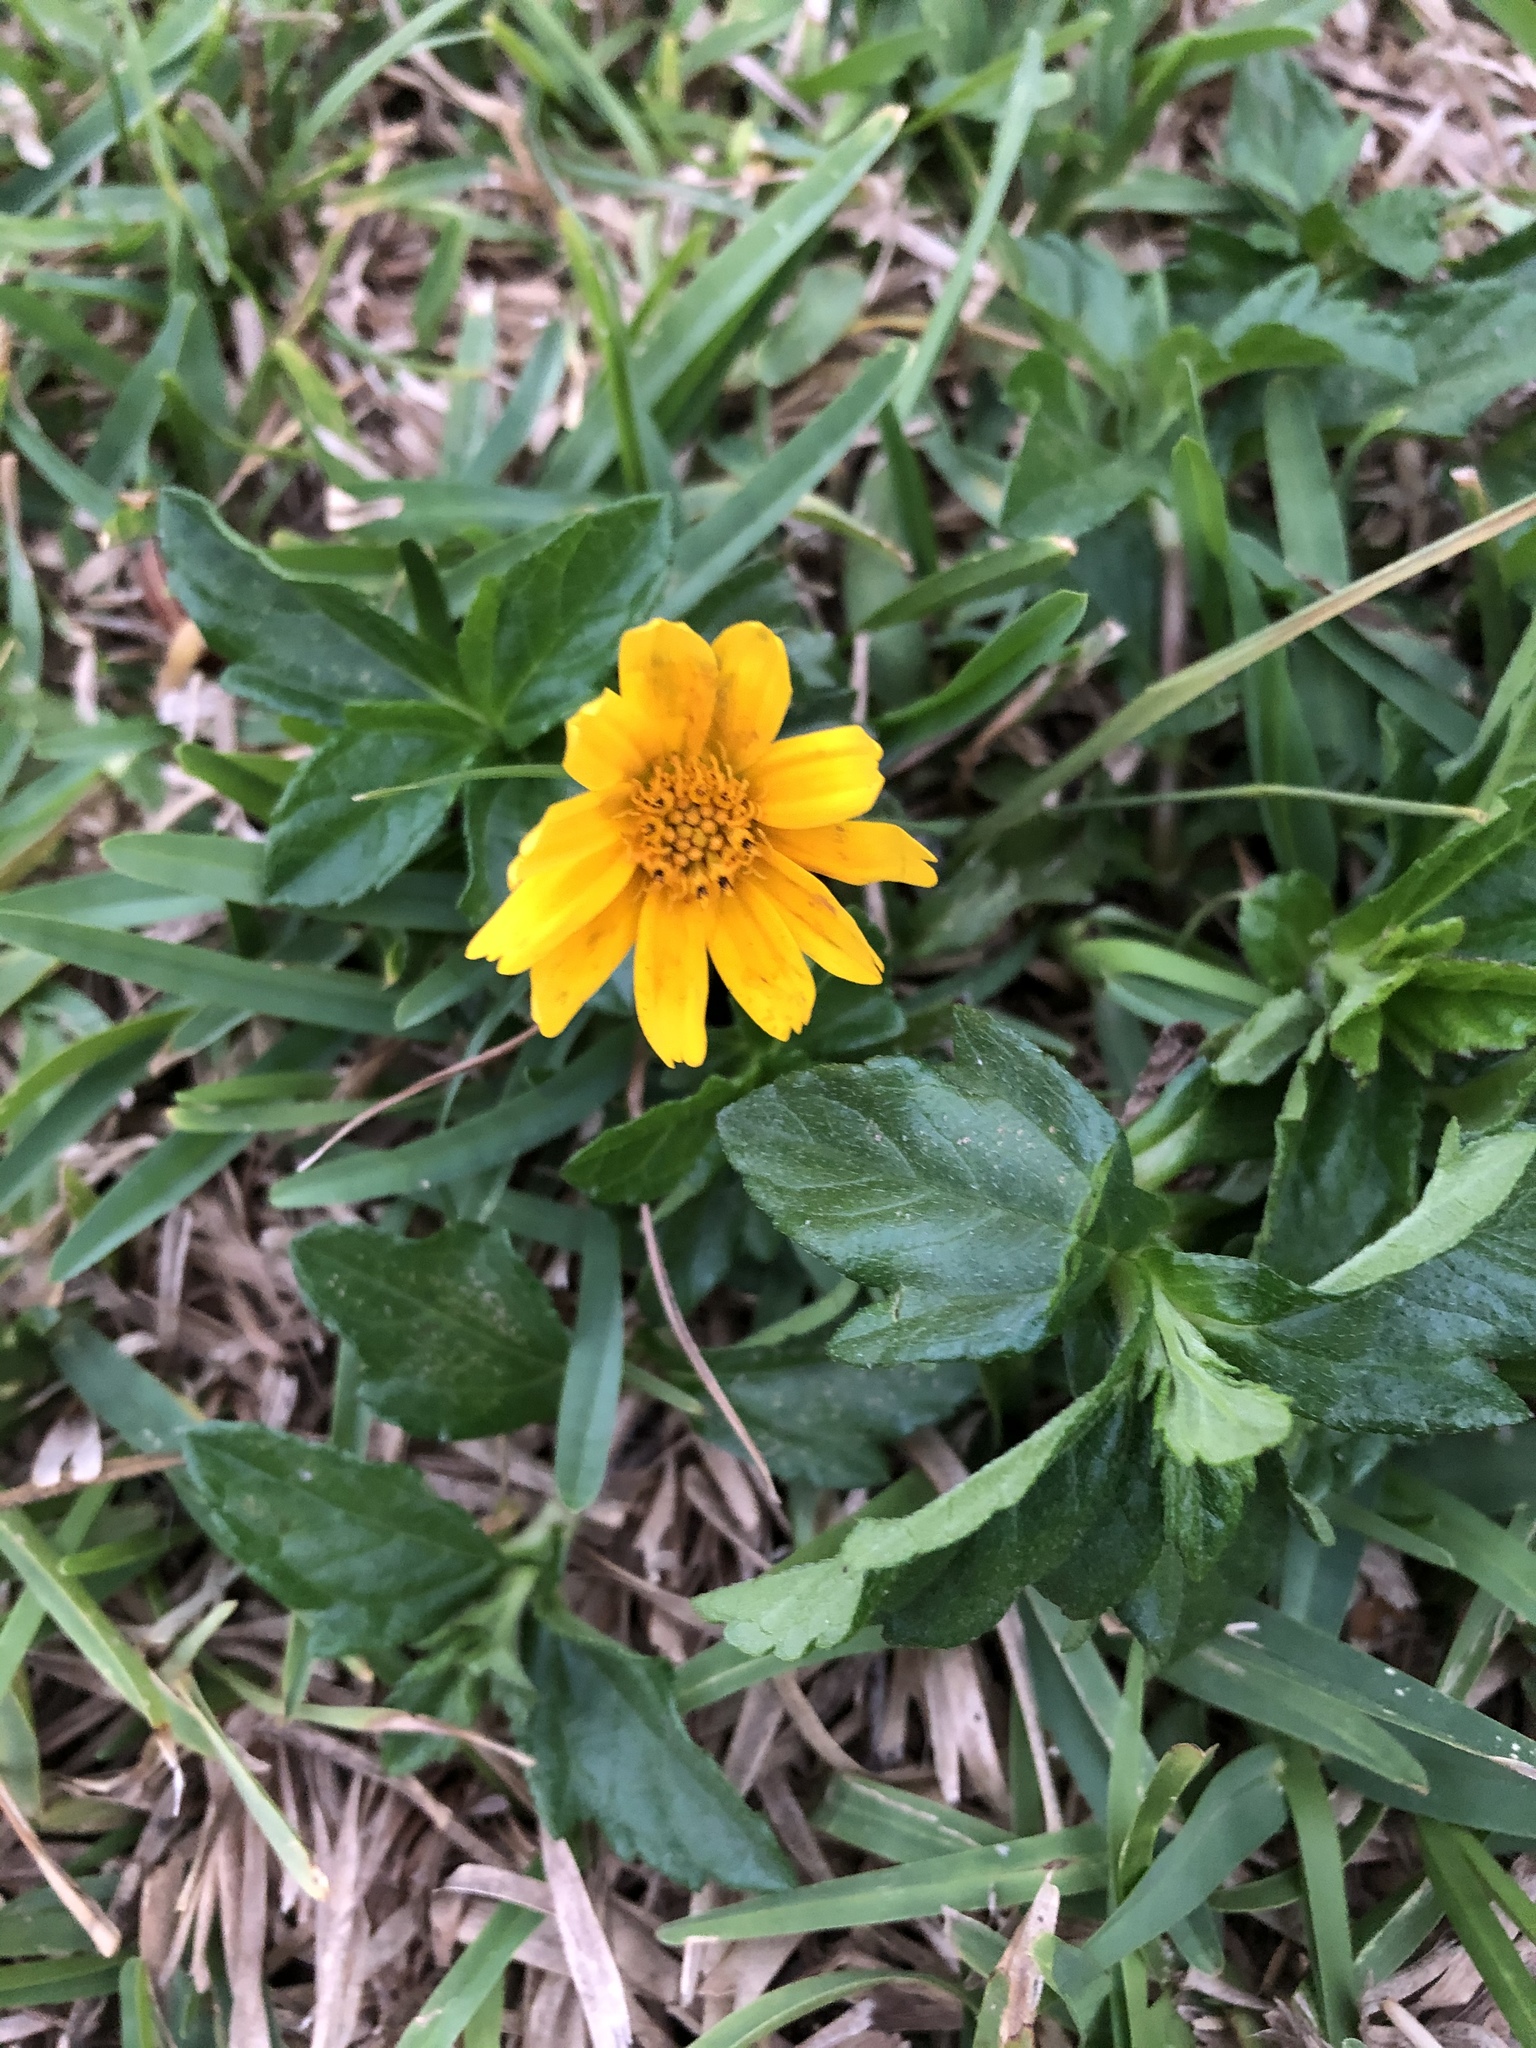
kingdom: Plantae
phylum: Tracheophyta
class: Magnoliopsida
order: Asterales
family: Asteraceae
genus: Sphagneticola
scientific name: Sphagneticola trilobata
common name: Bay biscayne creeping-oxeye
